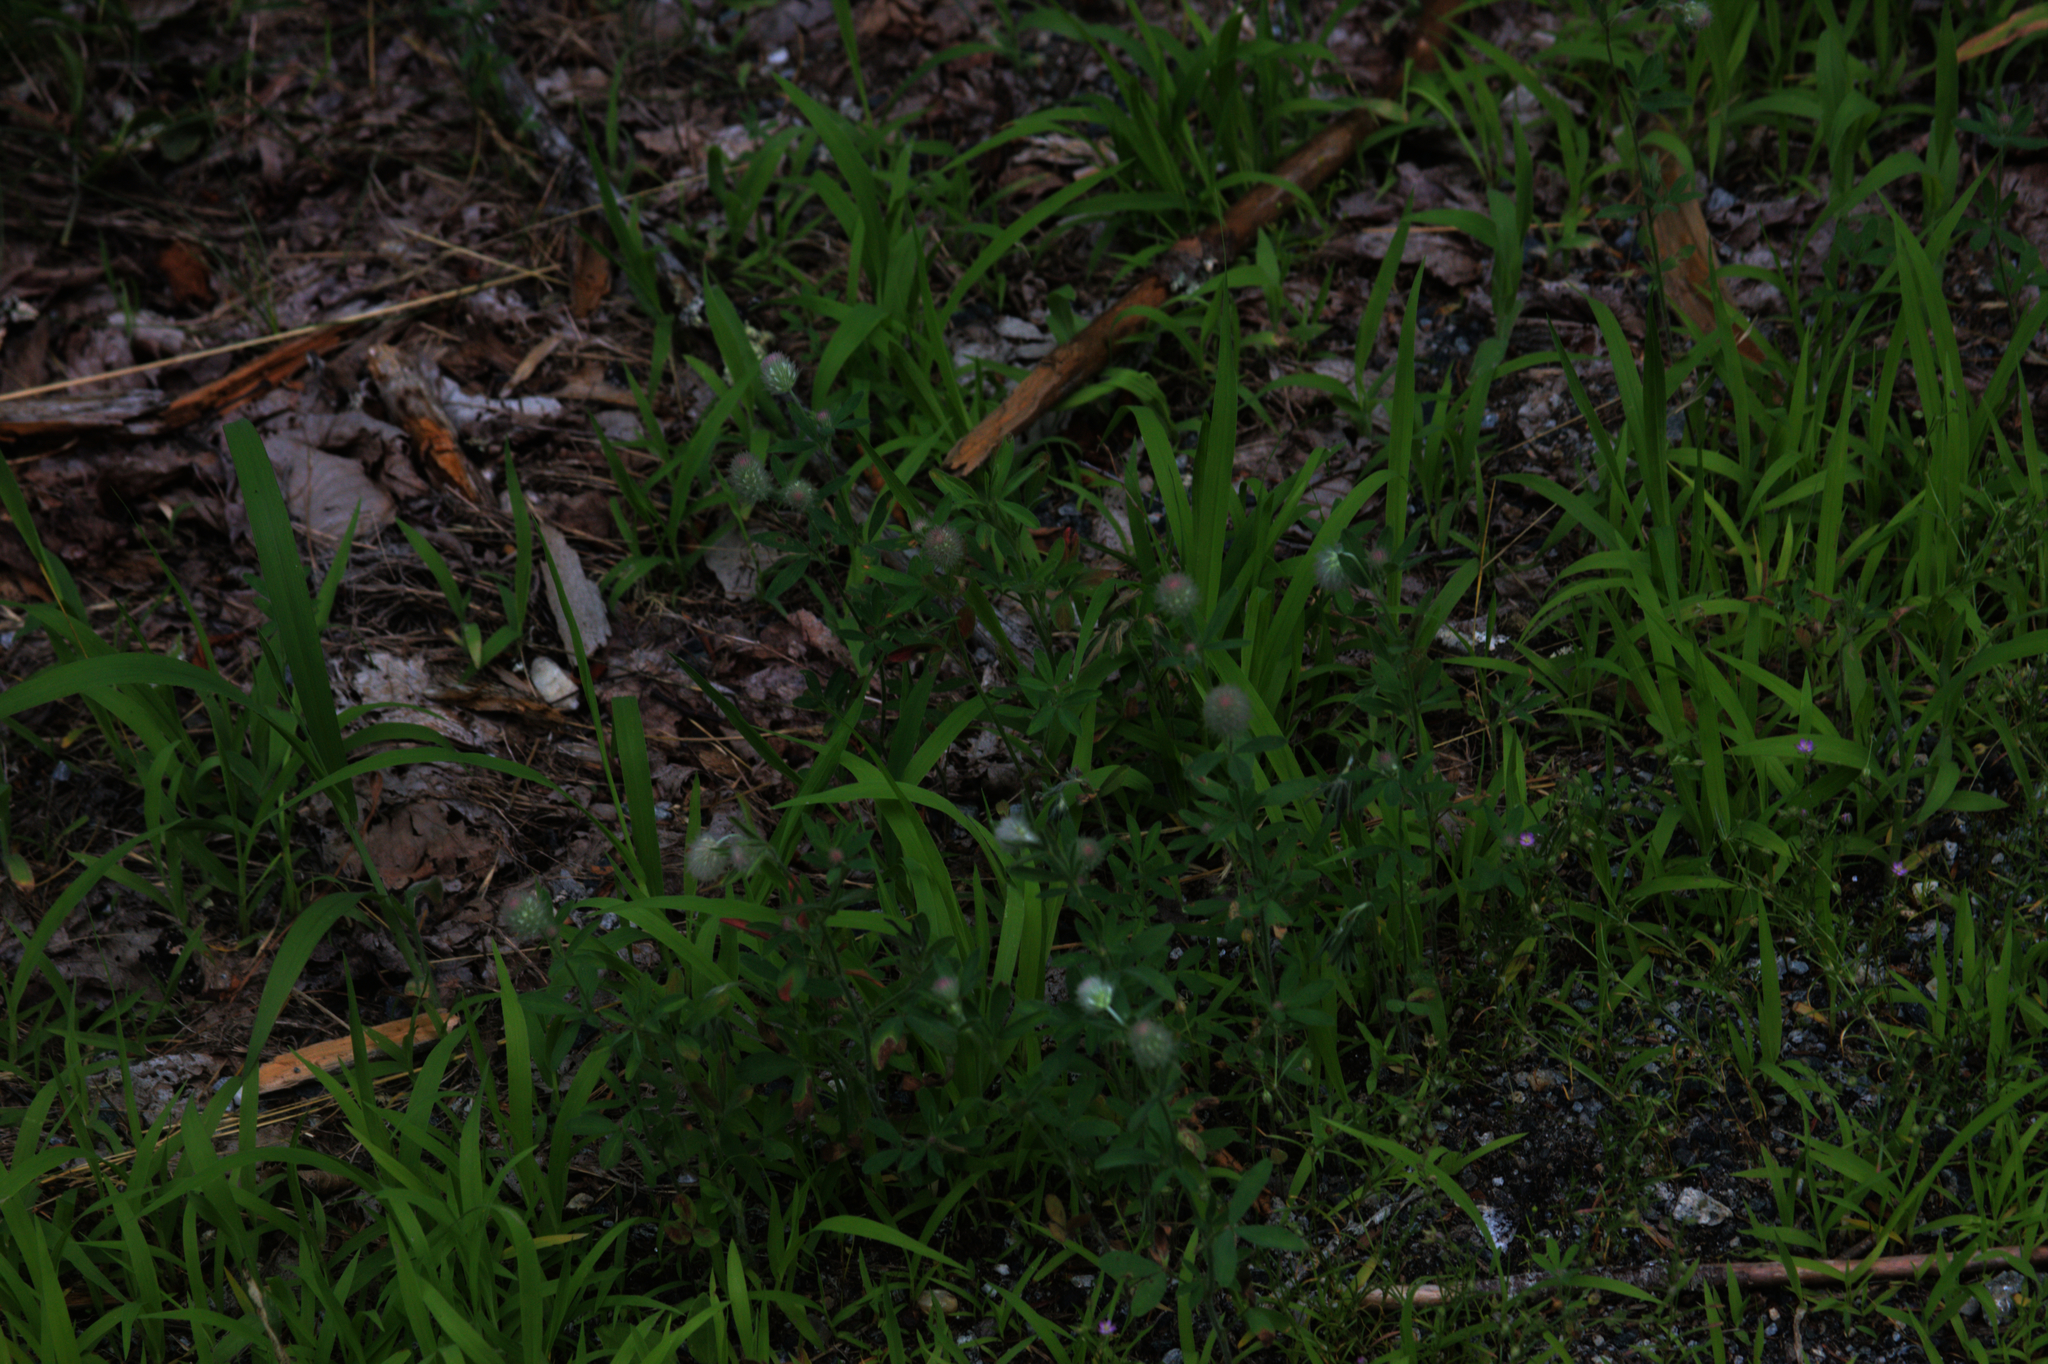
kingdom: Plantae
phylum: Tracheophyta
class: Magnoliopsida
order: Fabales
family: Fabaceae
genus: Trifolium
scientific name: Trifolium arvense
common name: Hare's-foot clover
